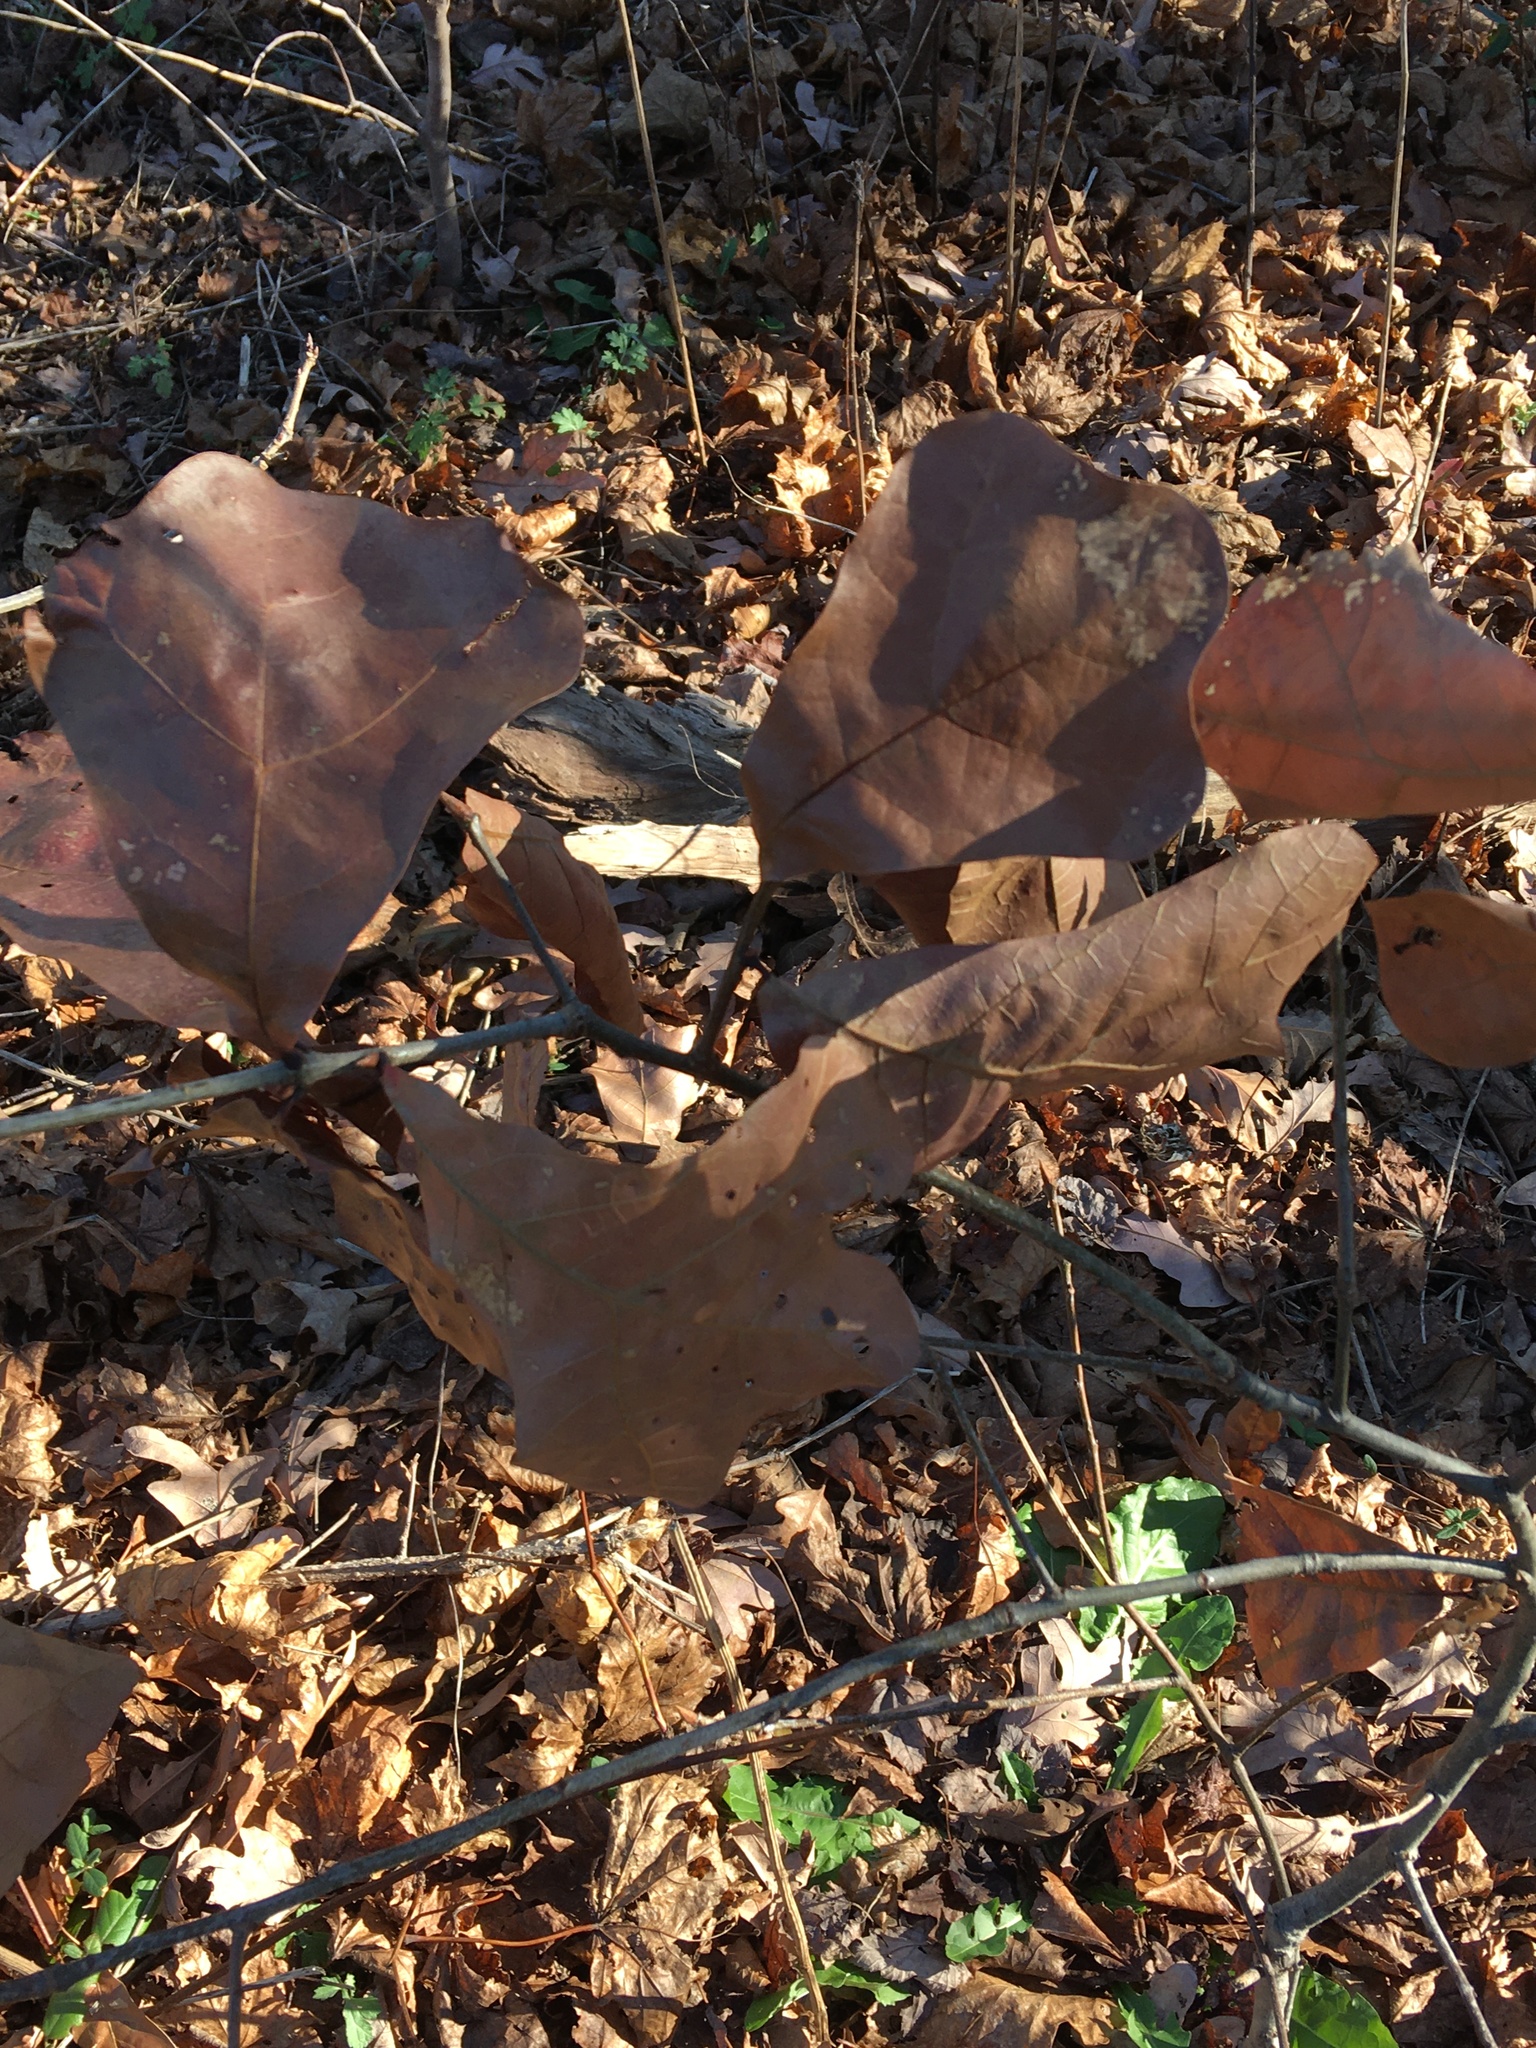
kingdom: Plantae
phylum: Tracheophyta
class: Magnoliopsida
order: Fagales
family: Fagaceae
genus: Quercus
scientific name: Quercus marilandica
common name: Blackjack oak
